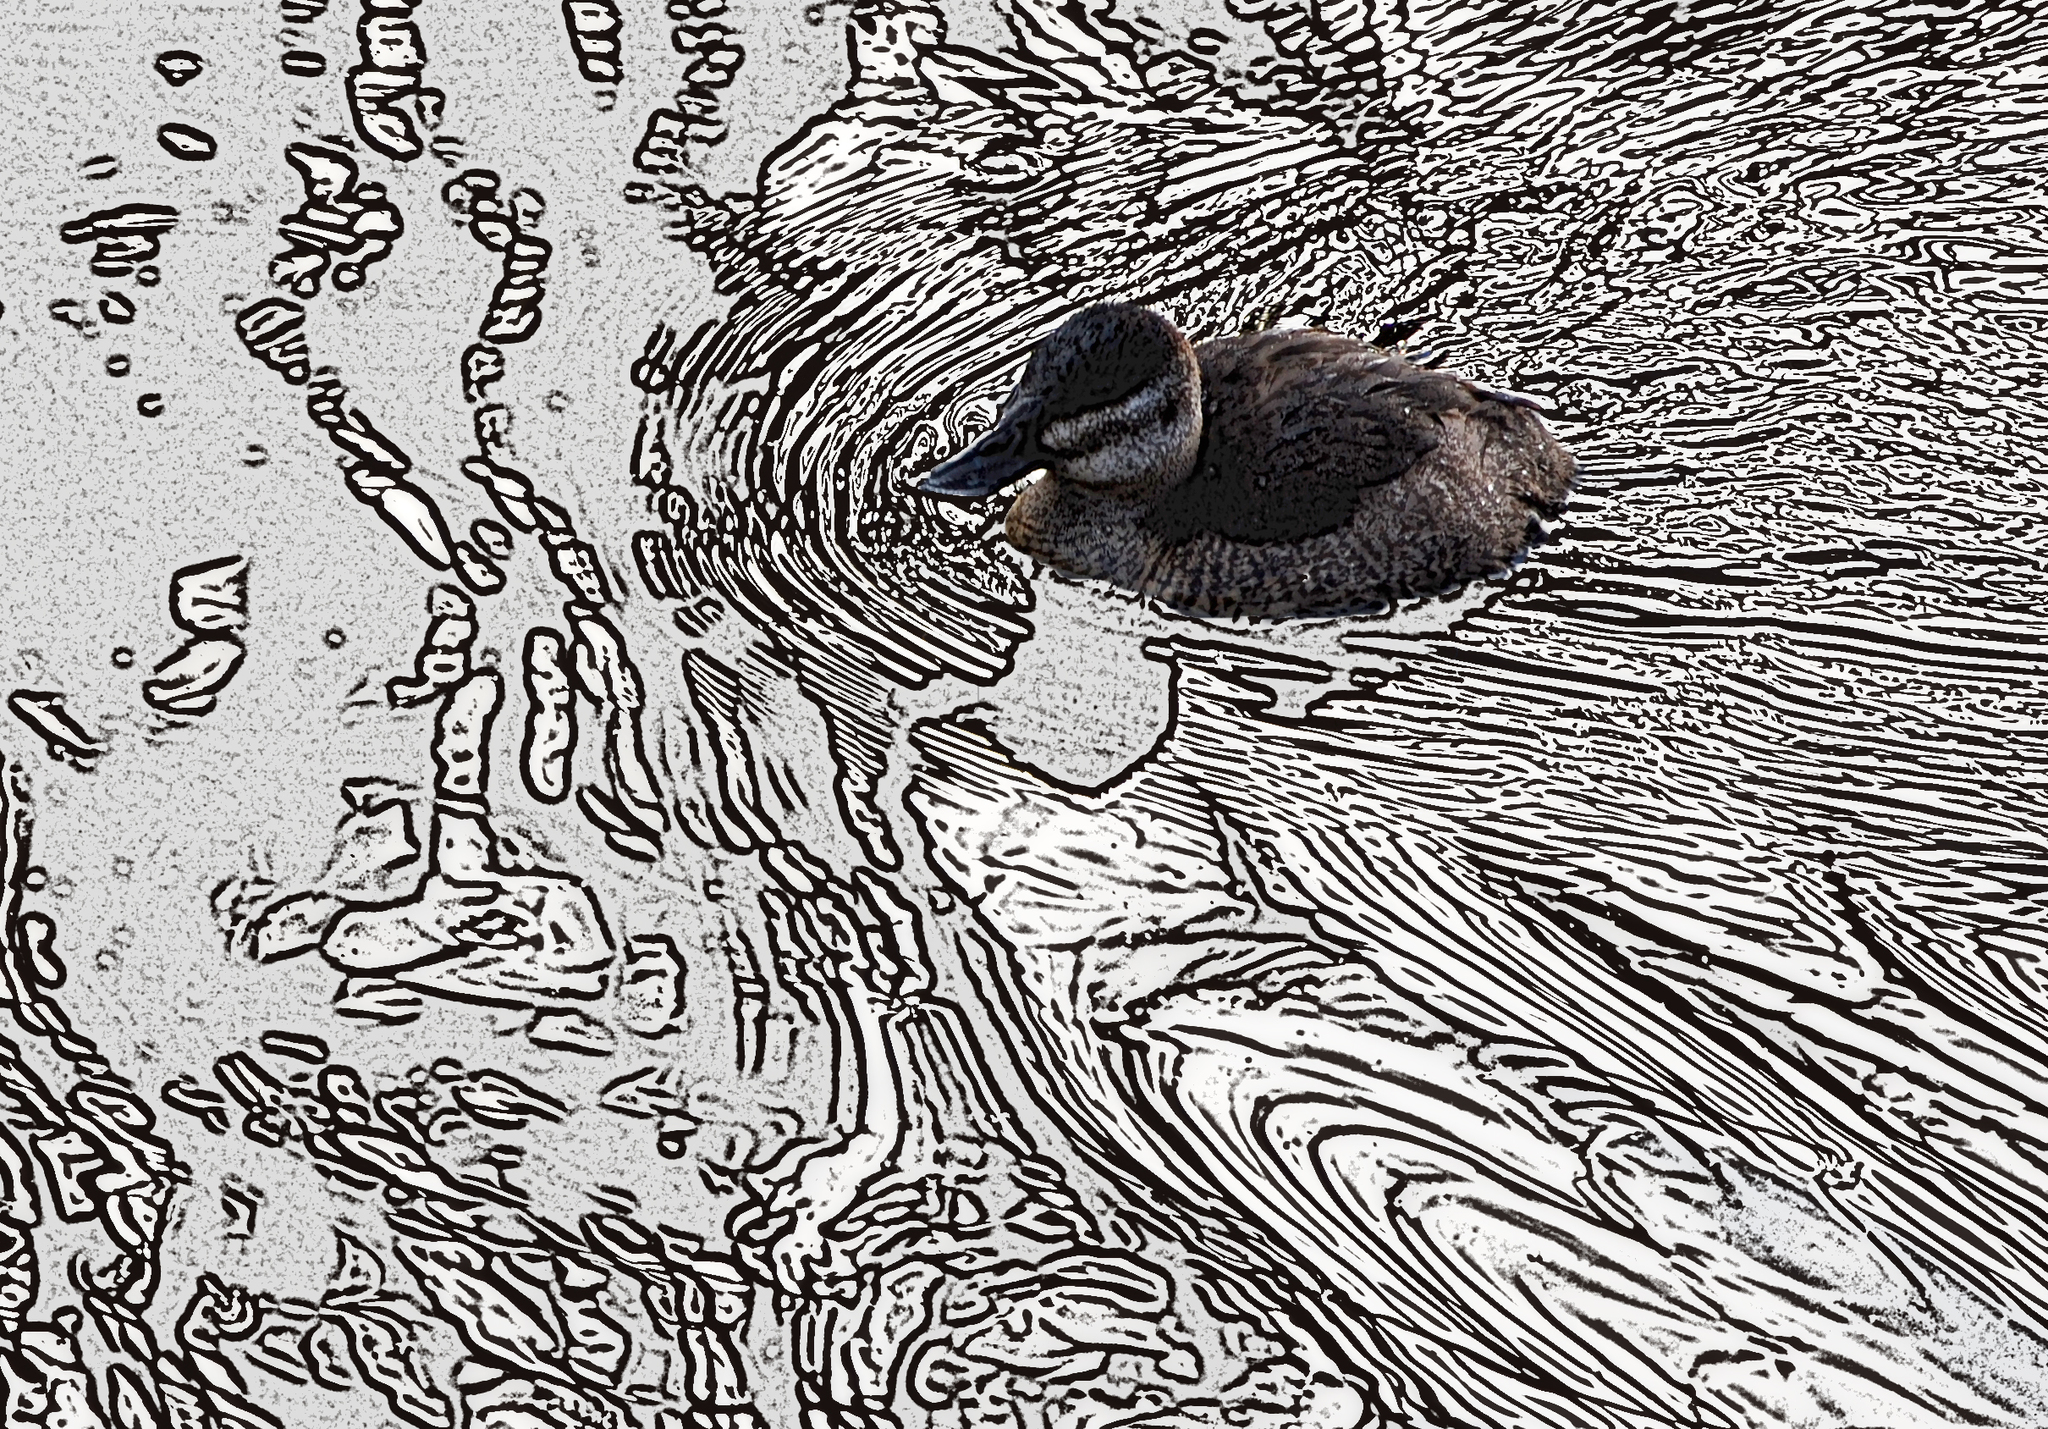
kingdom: Animalia
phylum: Chordata
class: Aves
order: Anseriformes
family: Anatidae
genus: Oxyura
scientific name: Oxyura jamaicensis
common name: Ruddy duck
